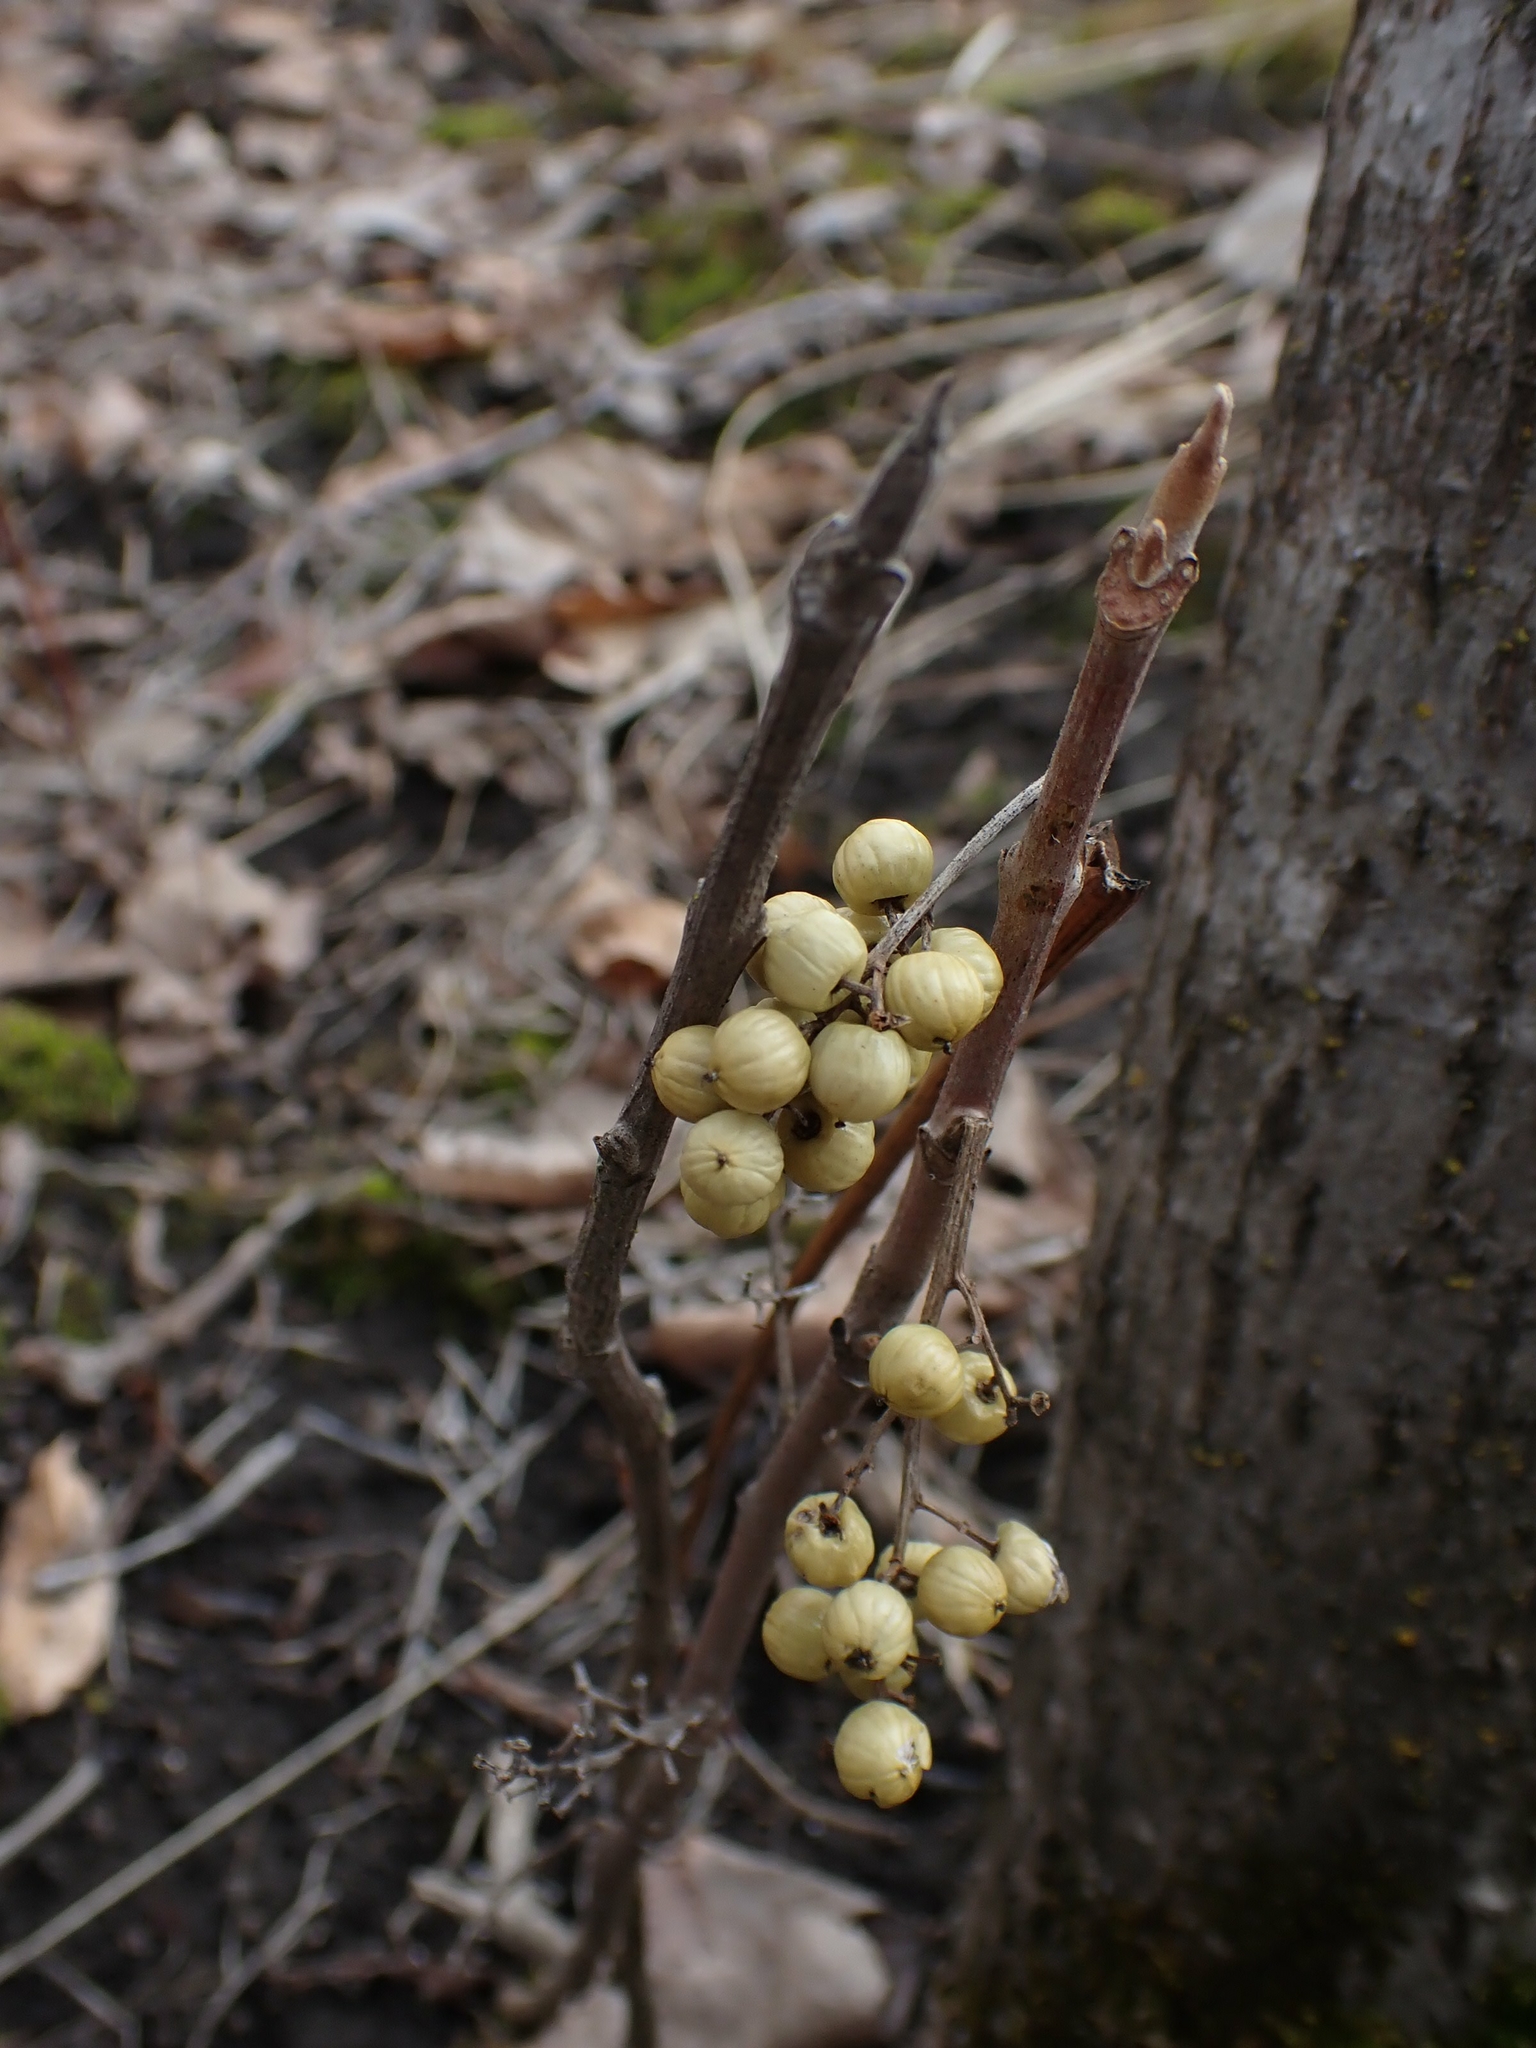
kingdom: Plantae
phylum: Tracheophyta
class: Magnoliopsida
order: Sapindales
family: Anacardiaceae
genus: Toxicodendron
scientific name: Toxicodendron rydbergii
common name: Rydberg's poison-ivy
